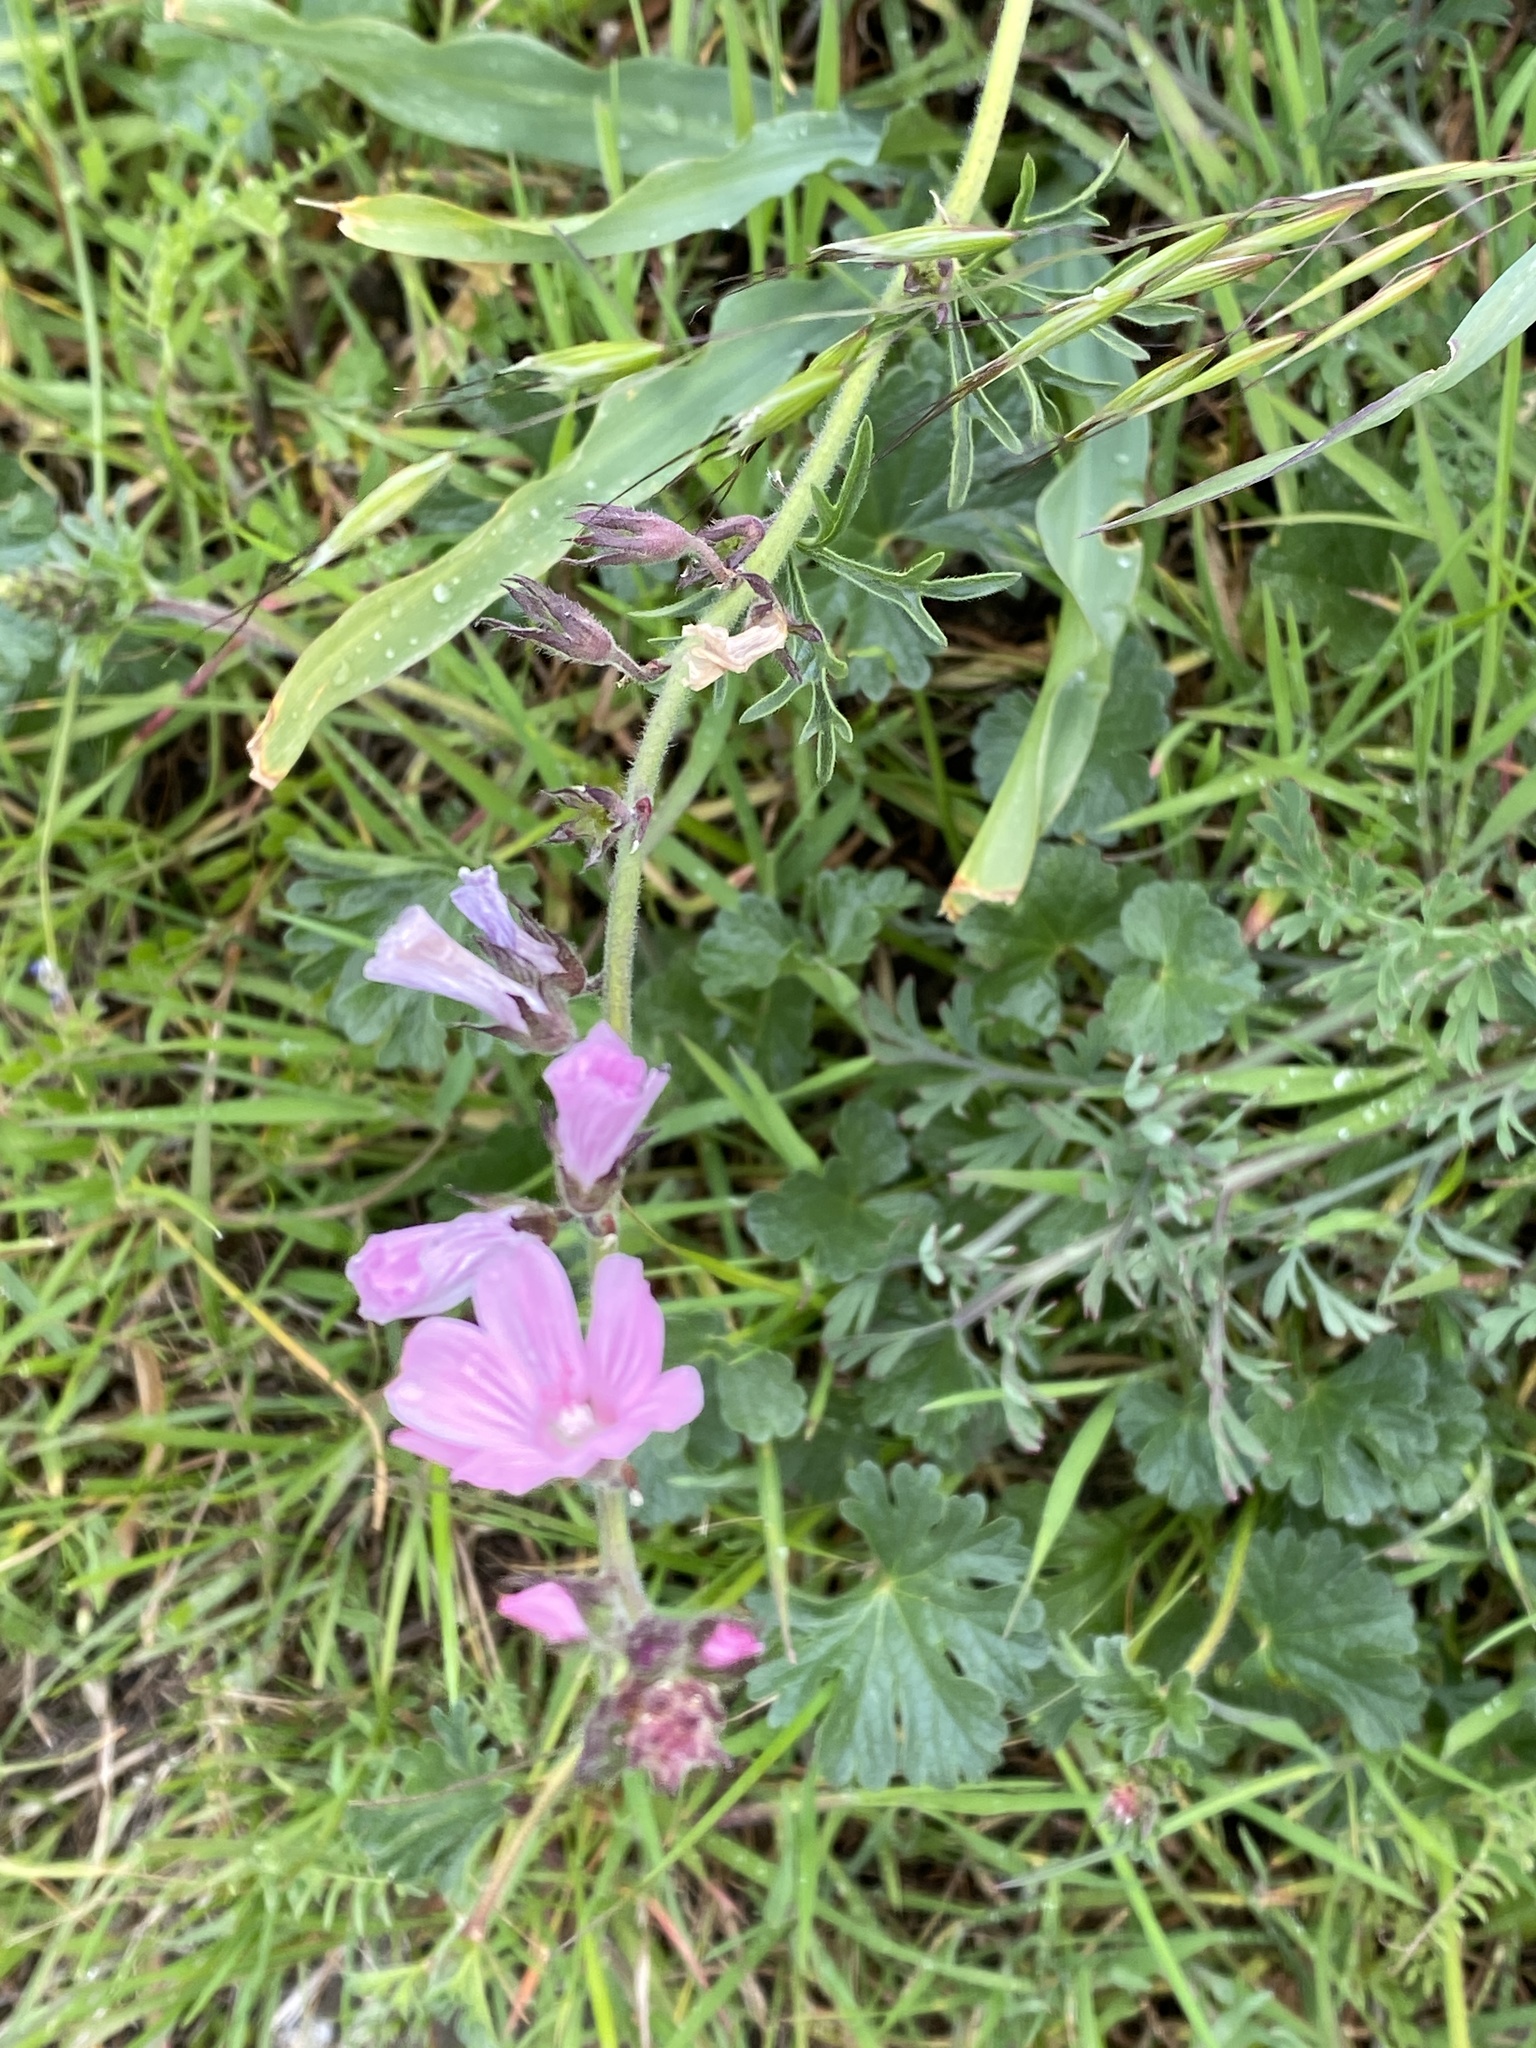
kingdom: Plantae
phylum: Tracheophyta
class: Magnoliopsida
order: Malvales
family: Malvaceae
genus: Sidalcea
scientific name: Sidalcea malviflora
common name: Greek mallow
